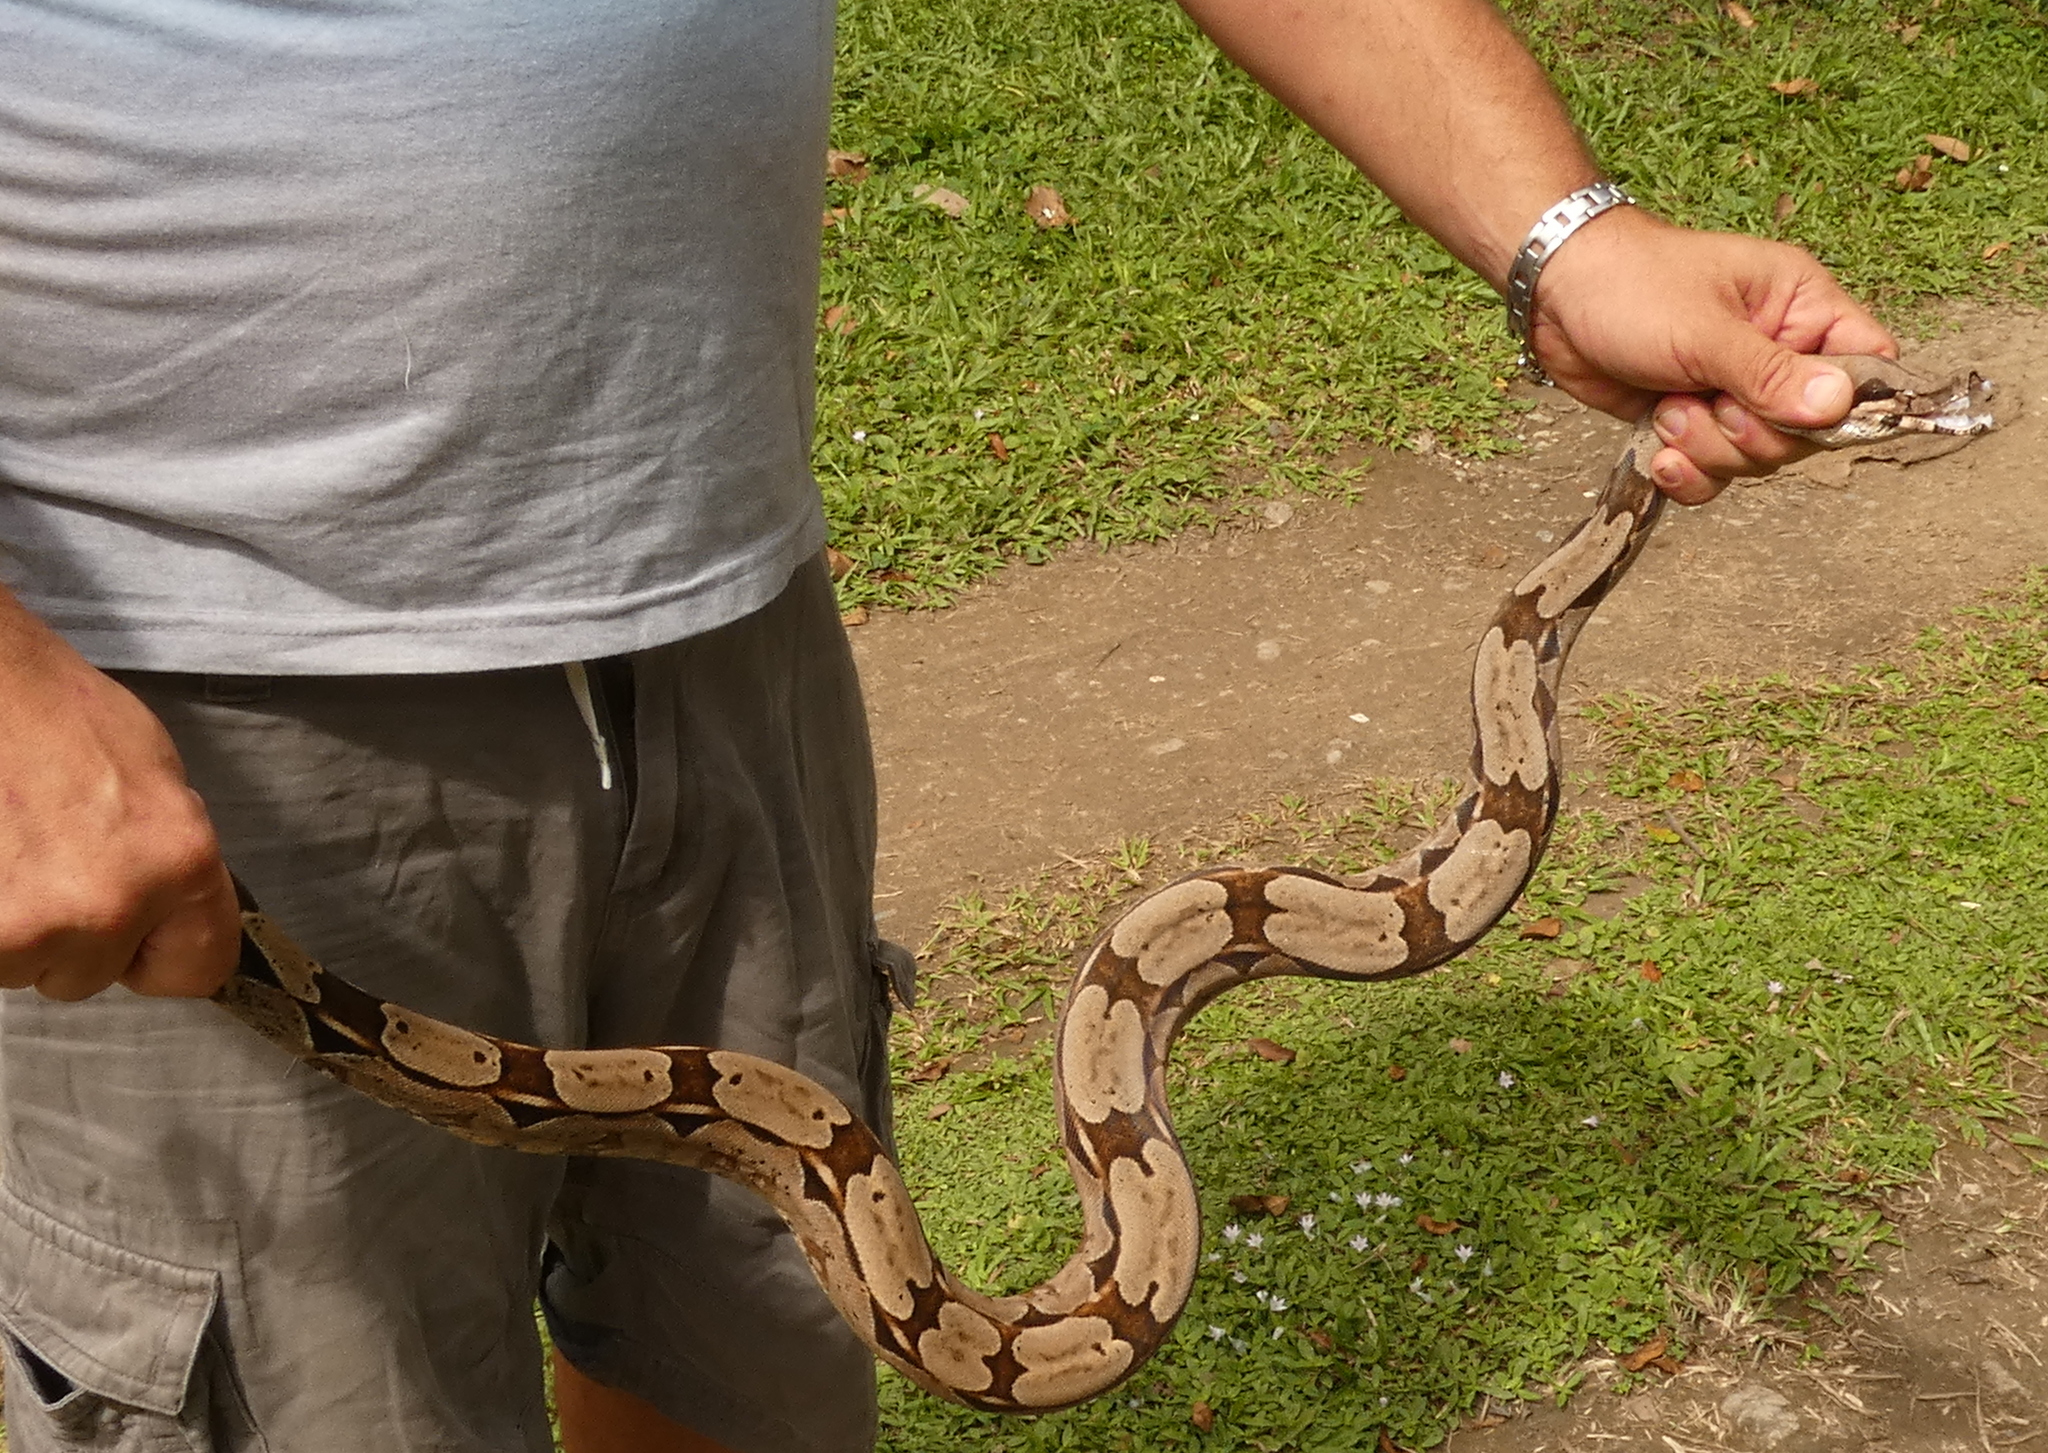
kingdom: Animalia
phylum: Chordata
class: Squamata
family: Boidae
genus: Boa
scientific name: Boa constrictor
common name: Boa constrictor
